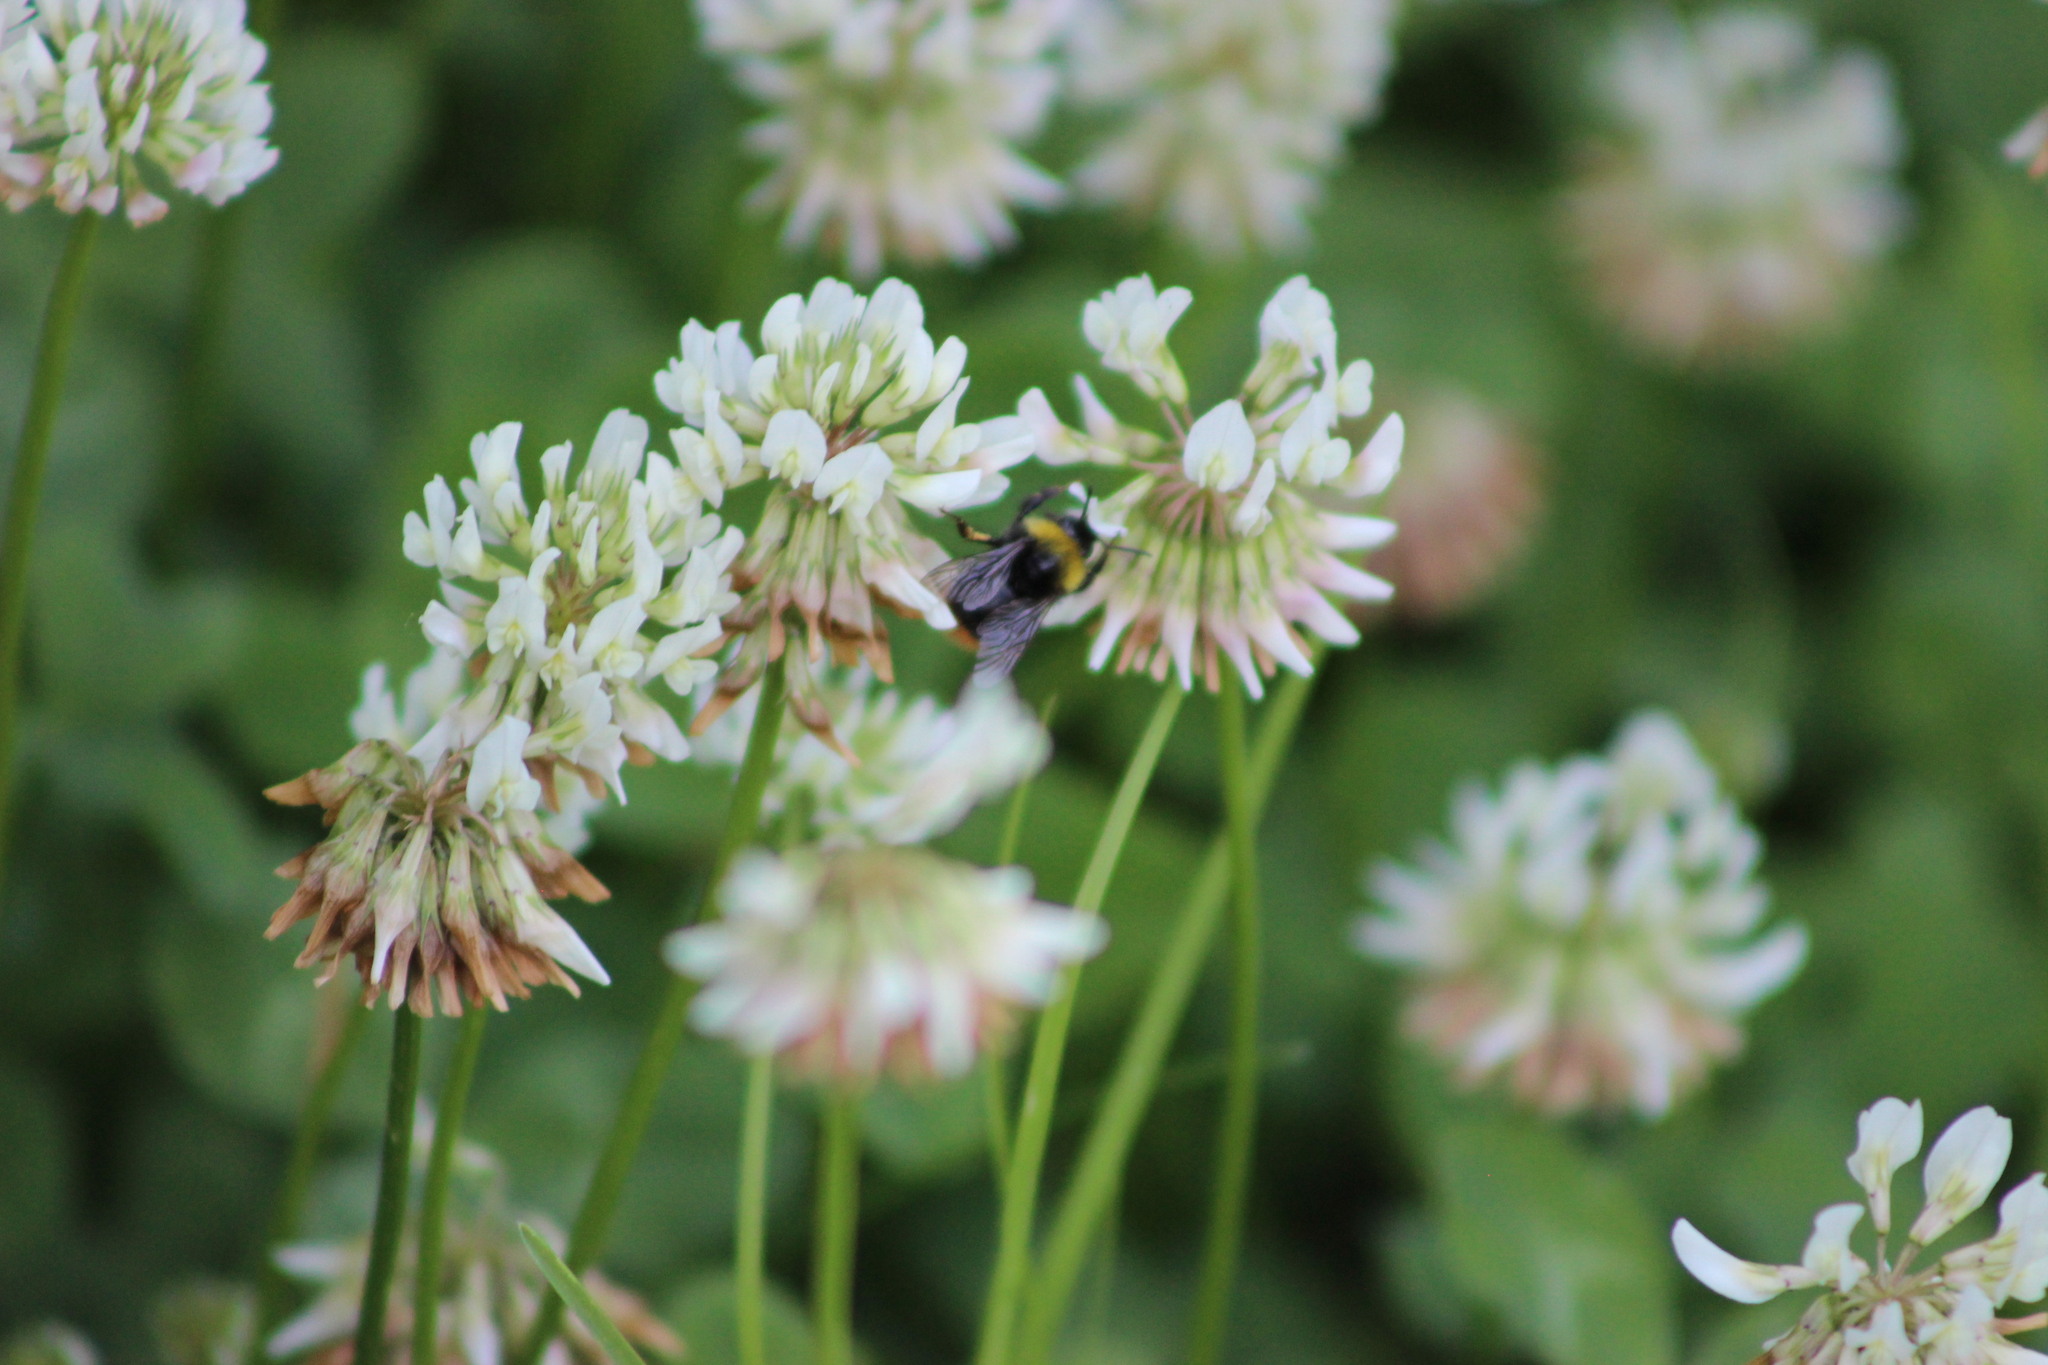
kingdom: Animalia
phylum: Arthropoda
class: Insecta
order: Hymenoptera
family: Apidae
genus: Bombus
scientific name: Bombus pratorum
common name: Early humble-bee
